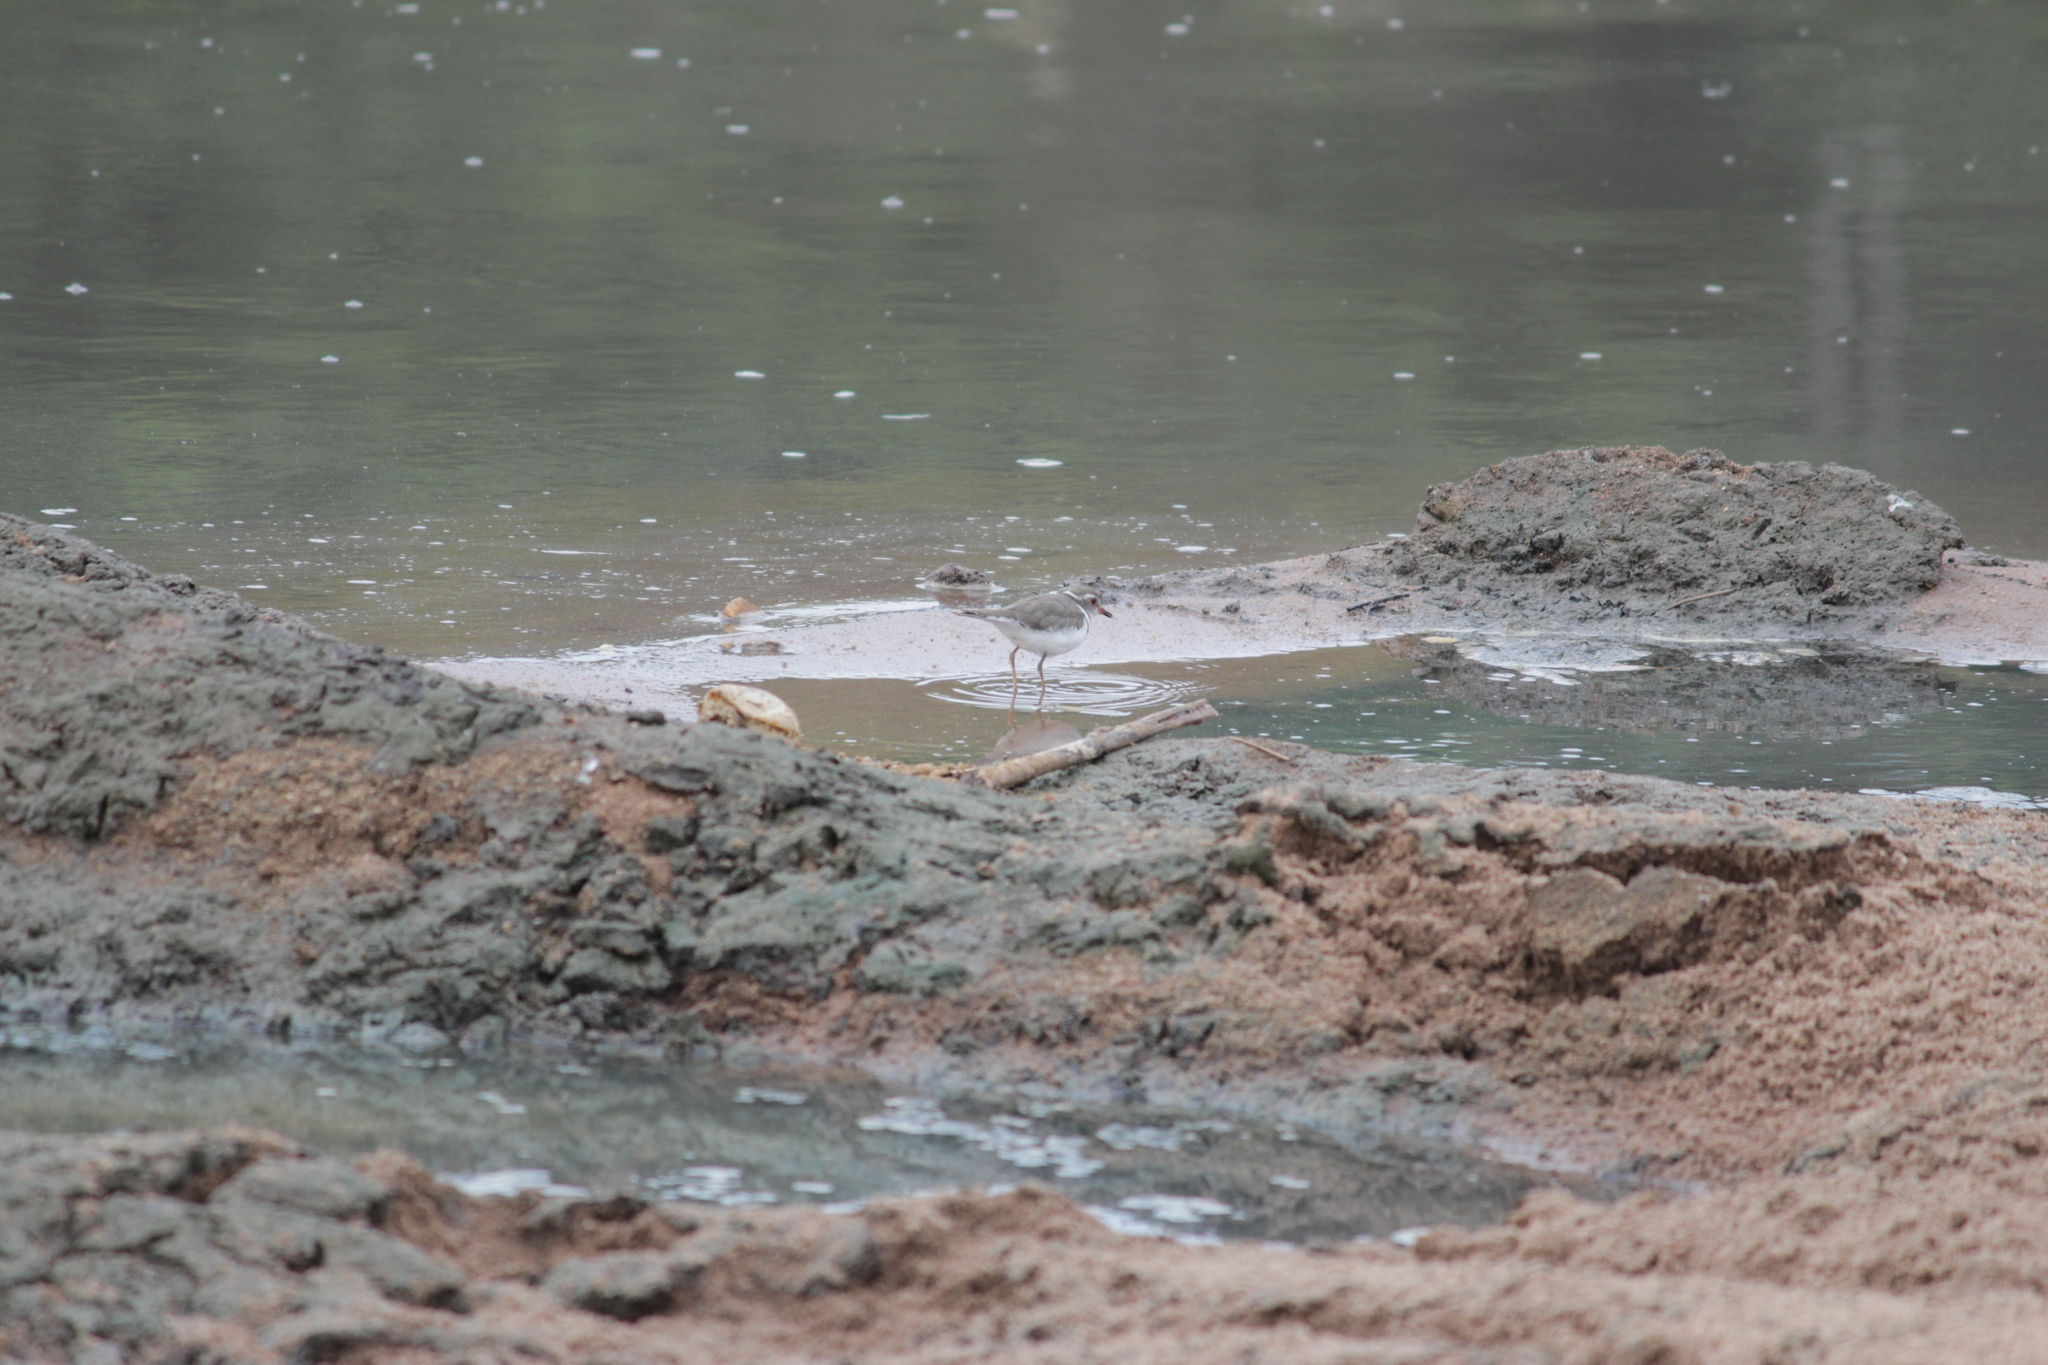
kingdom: Animalia
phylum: Chordata
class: Aves
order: Charadriiformes
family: Charadriidae
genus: Charadrius
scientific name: Charadrius tricollaris
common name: Three-banded plover
